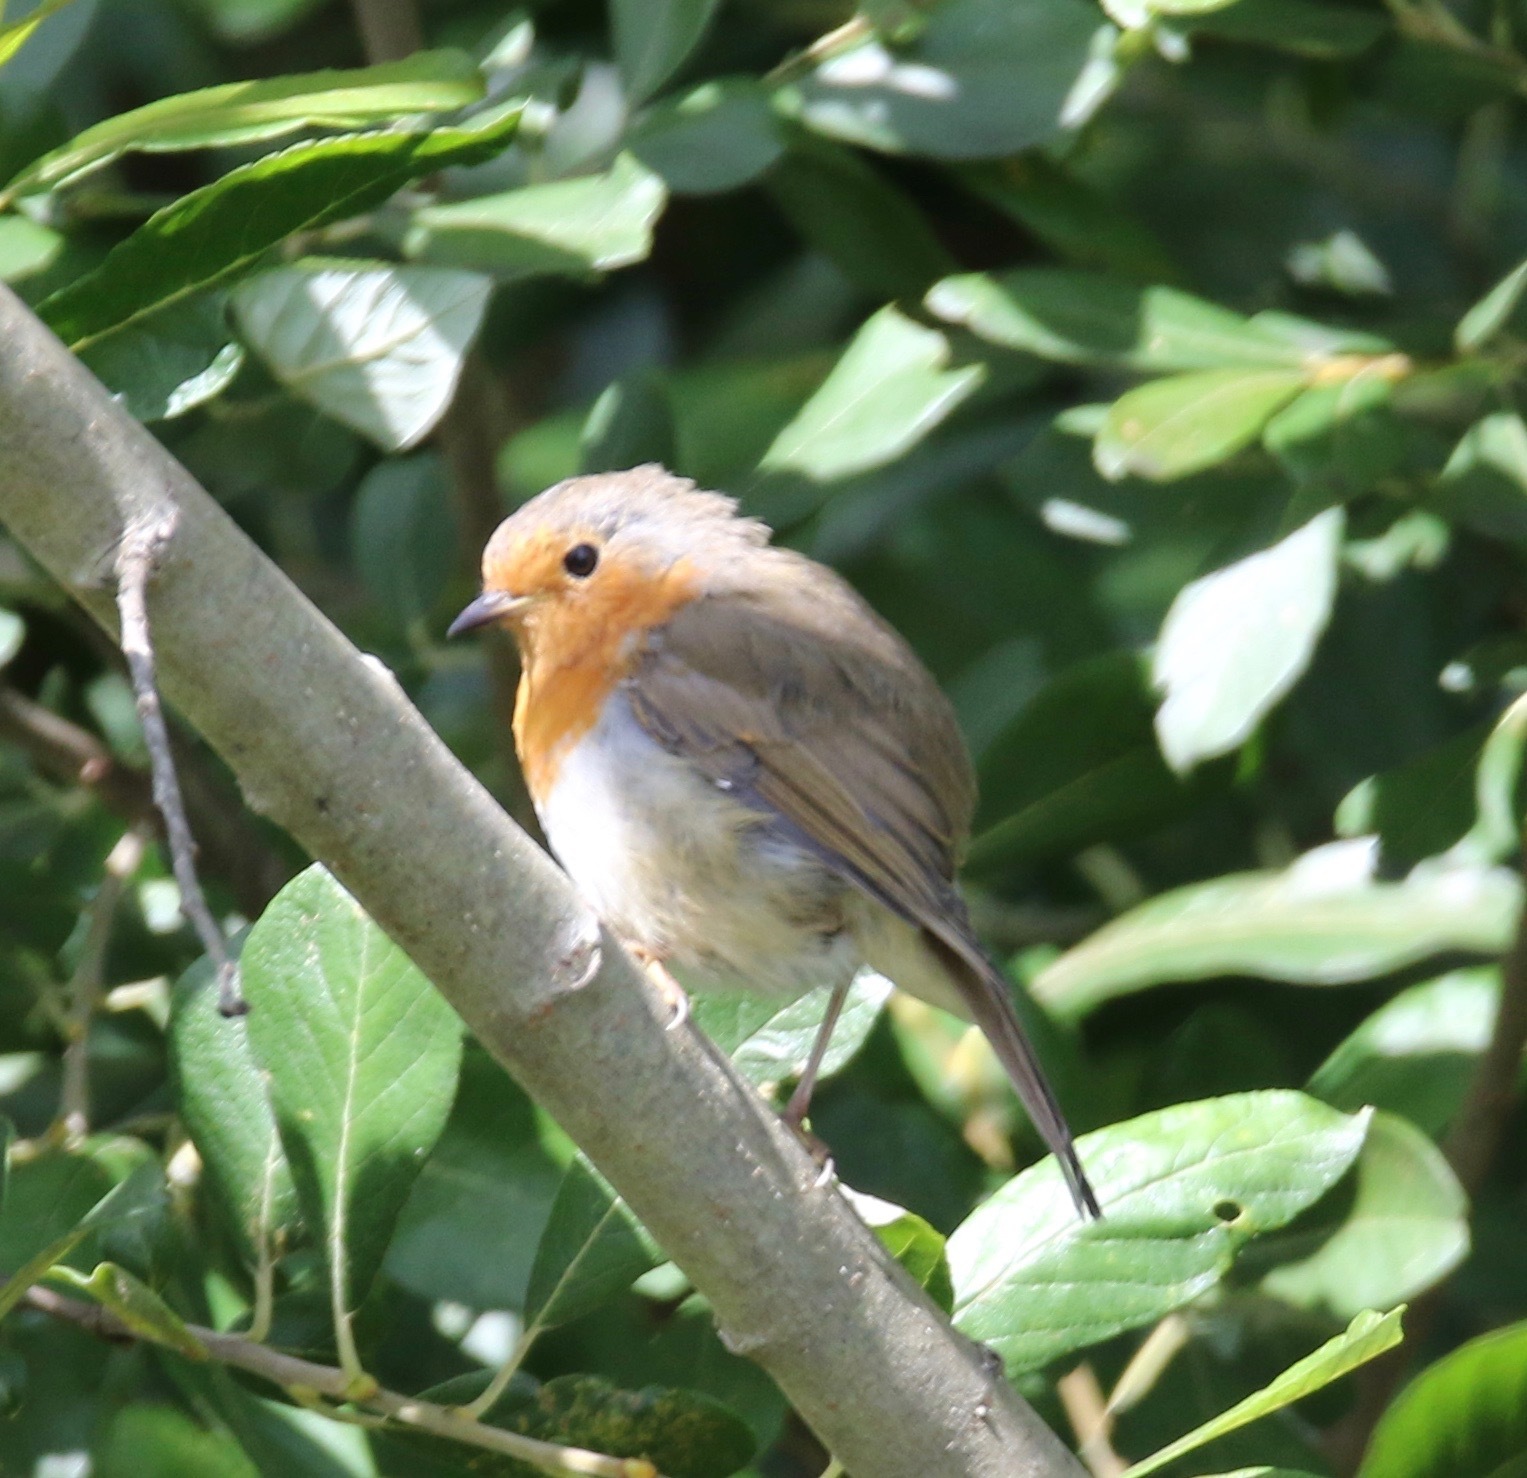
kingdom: Animalia
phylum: Chordata
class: Aves
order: Passeriformes
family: Muscicapidae
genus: Erithacus
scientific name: Erithacus rubecula
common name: European robin
